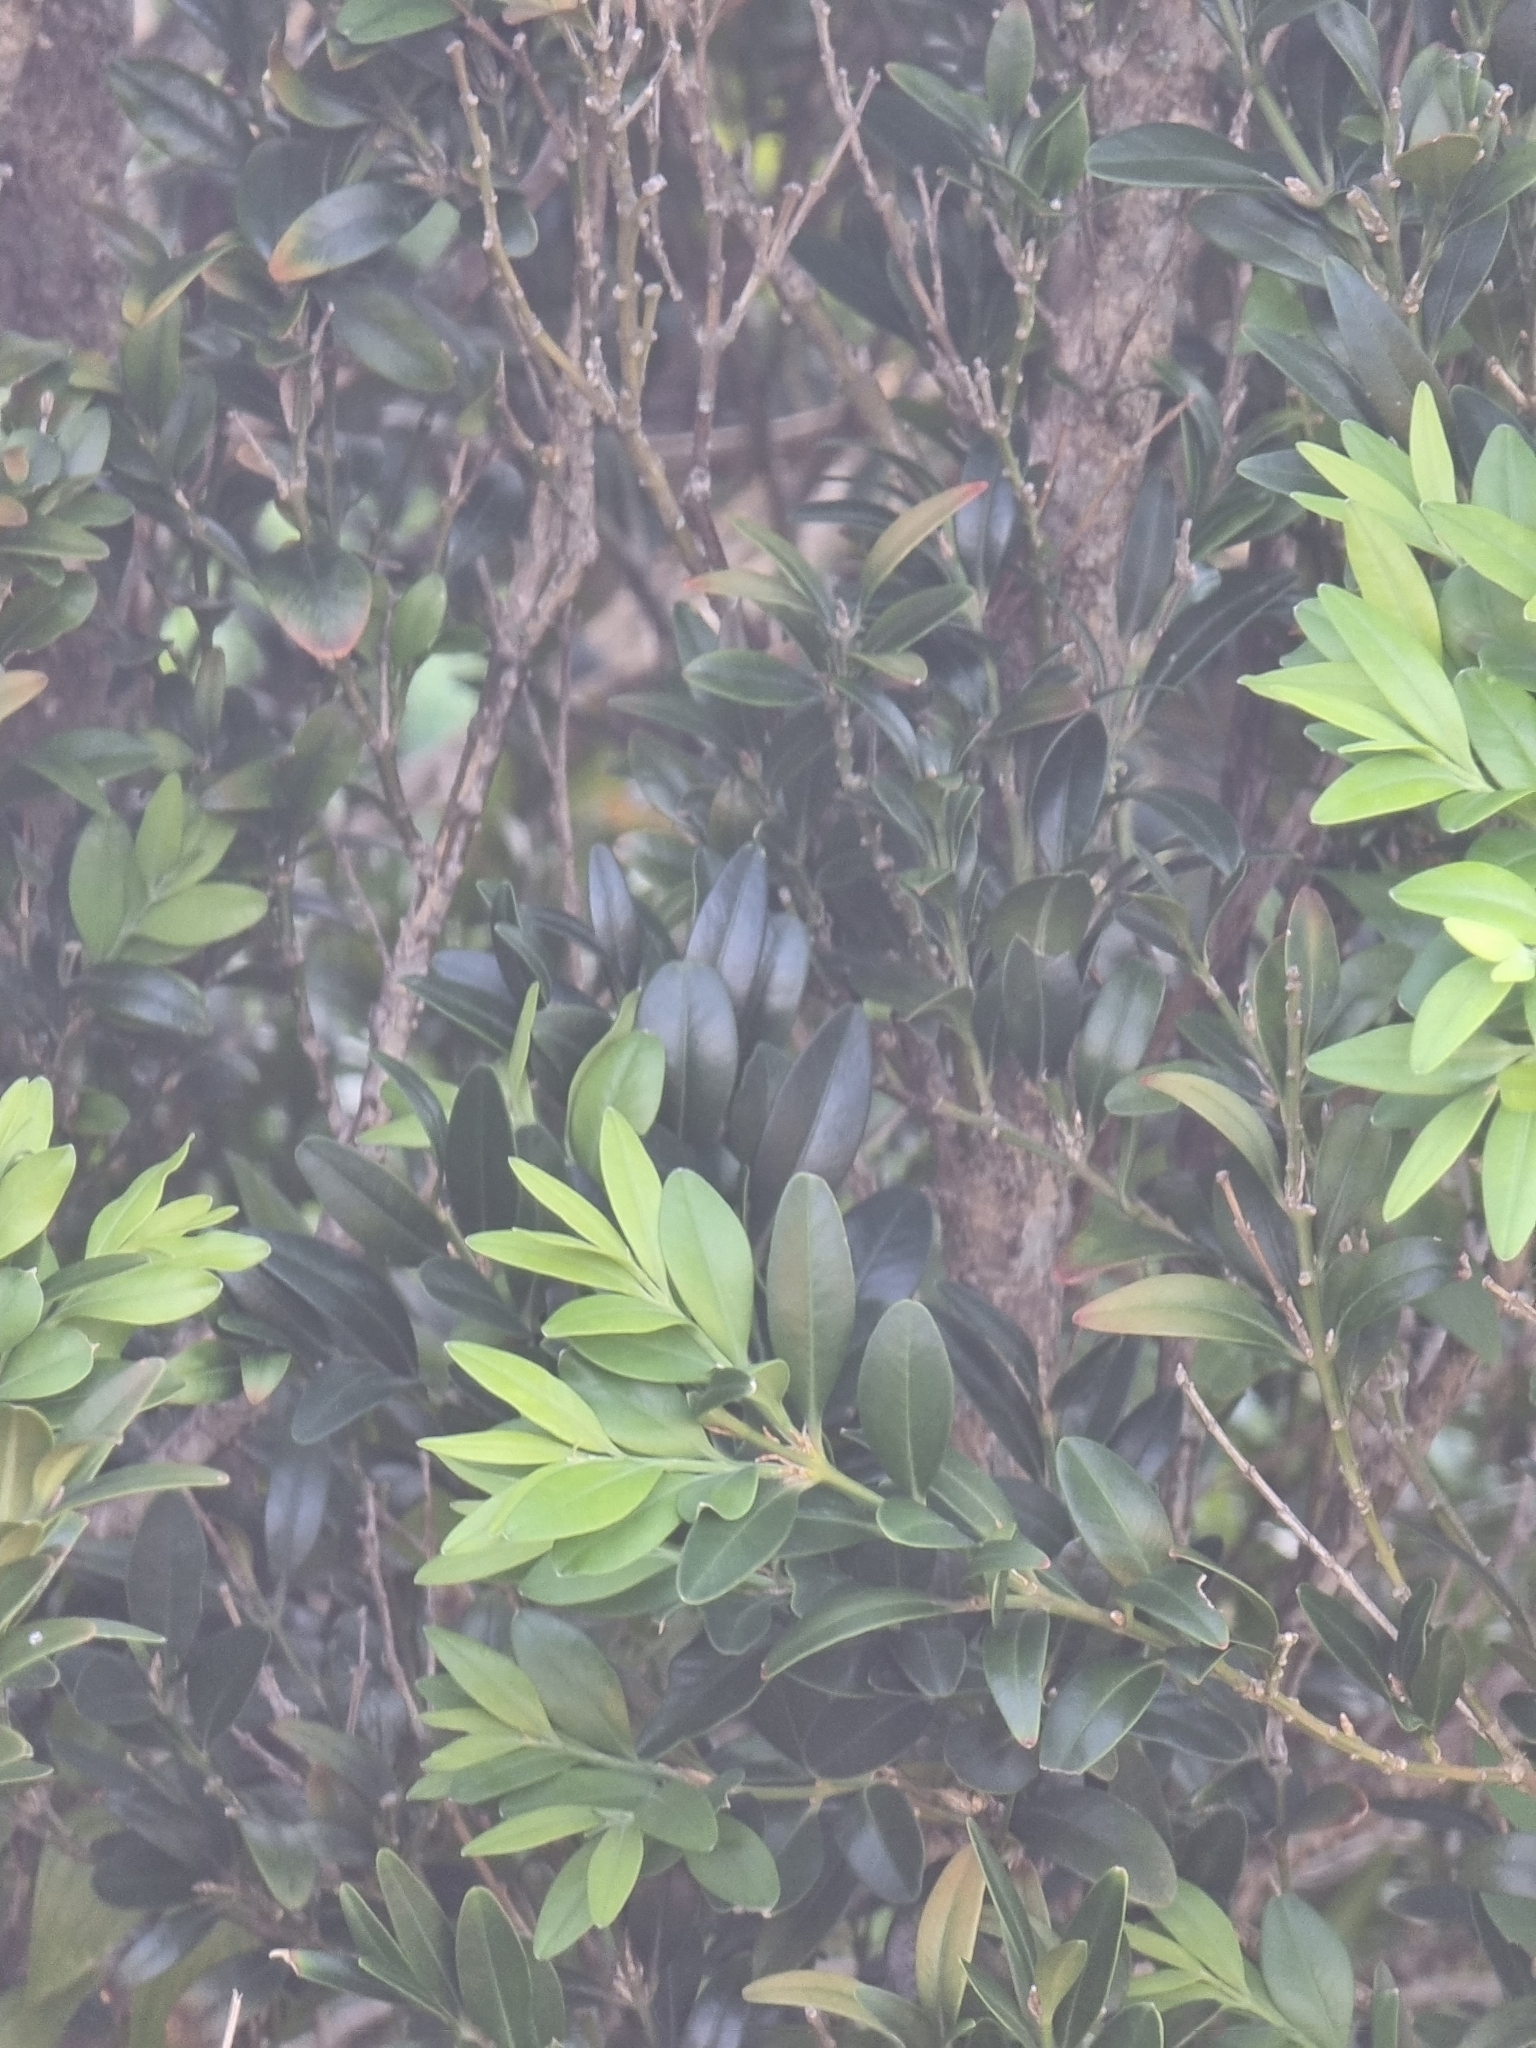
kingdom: Plantae
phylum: Tracheophyta
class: Magnoliopsida
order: Buxales
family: Buxaceae
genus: Buxus
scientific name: Buxus sempervirens
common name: Box
